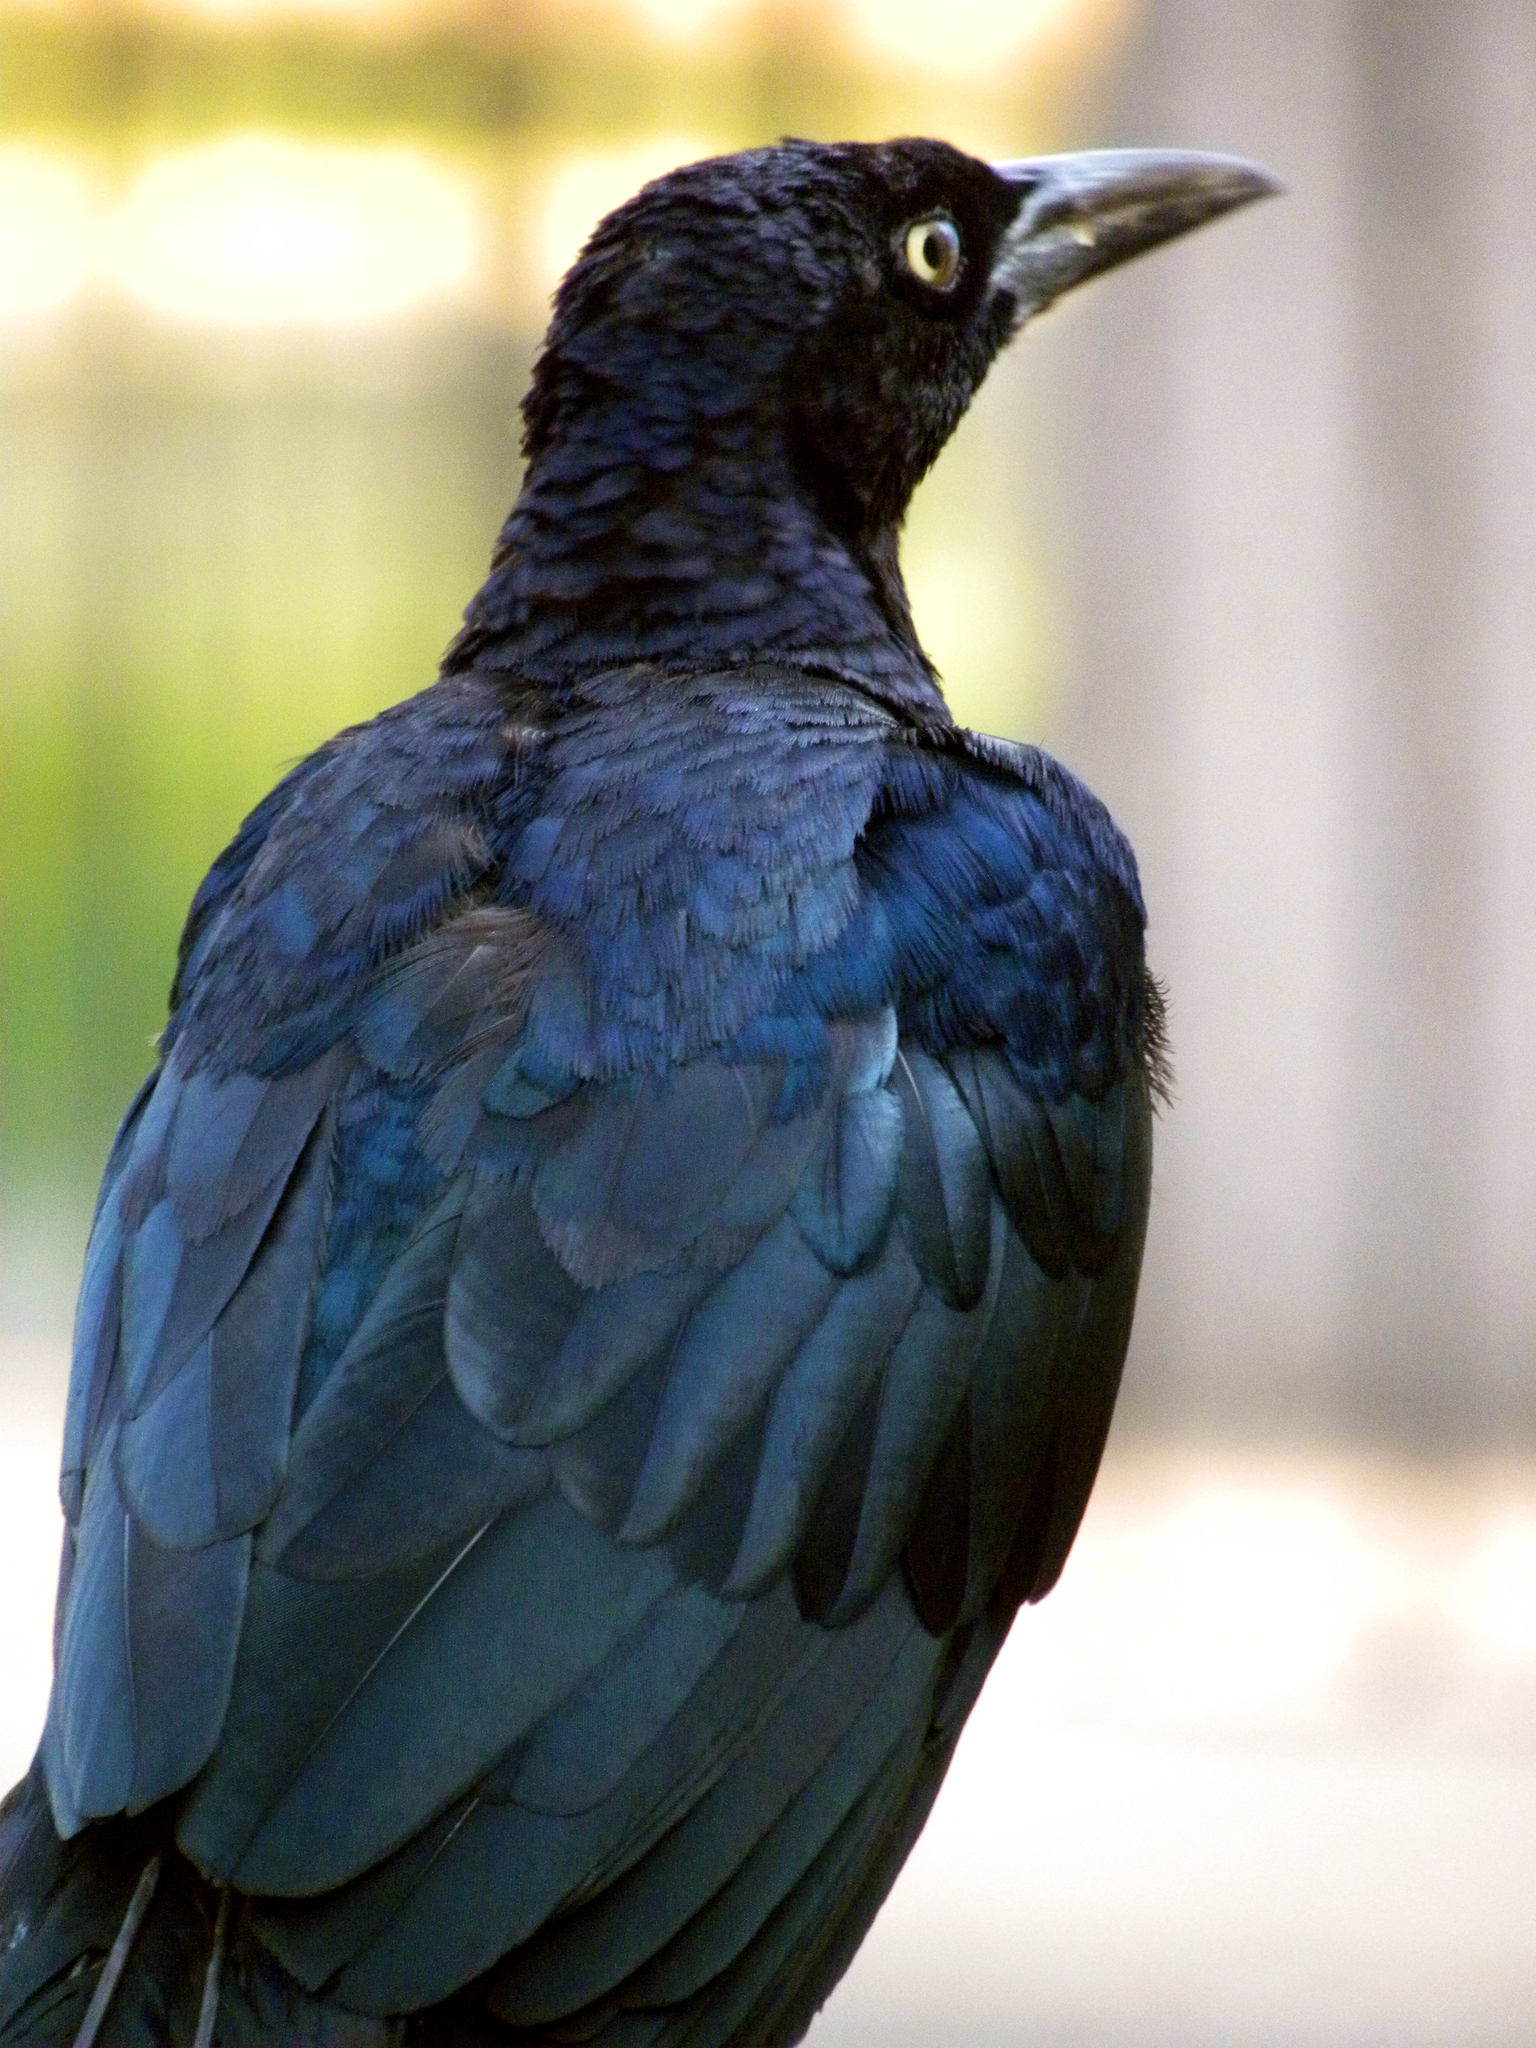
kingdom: Animalia
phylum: Chordata
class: Aves
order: Passeriformes
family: Icteridae
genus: Quiscalus
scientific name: Quiscalus mexicanus
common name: Great-tailed grackle
